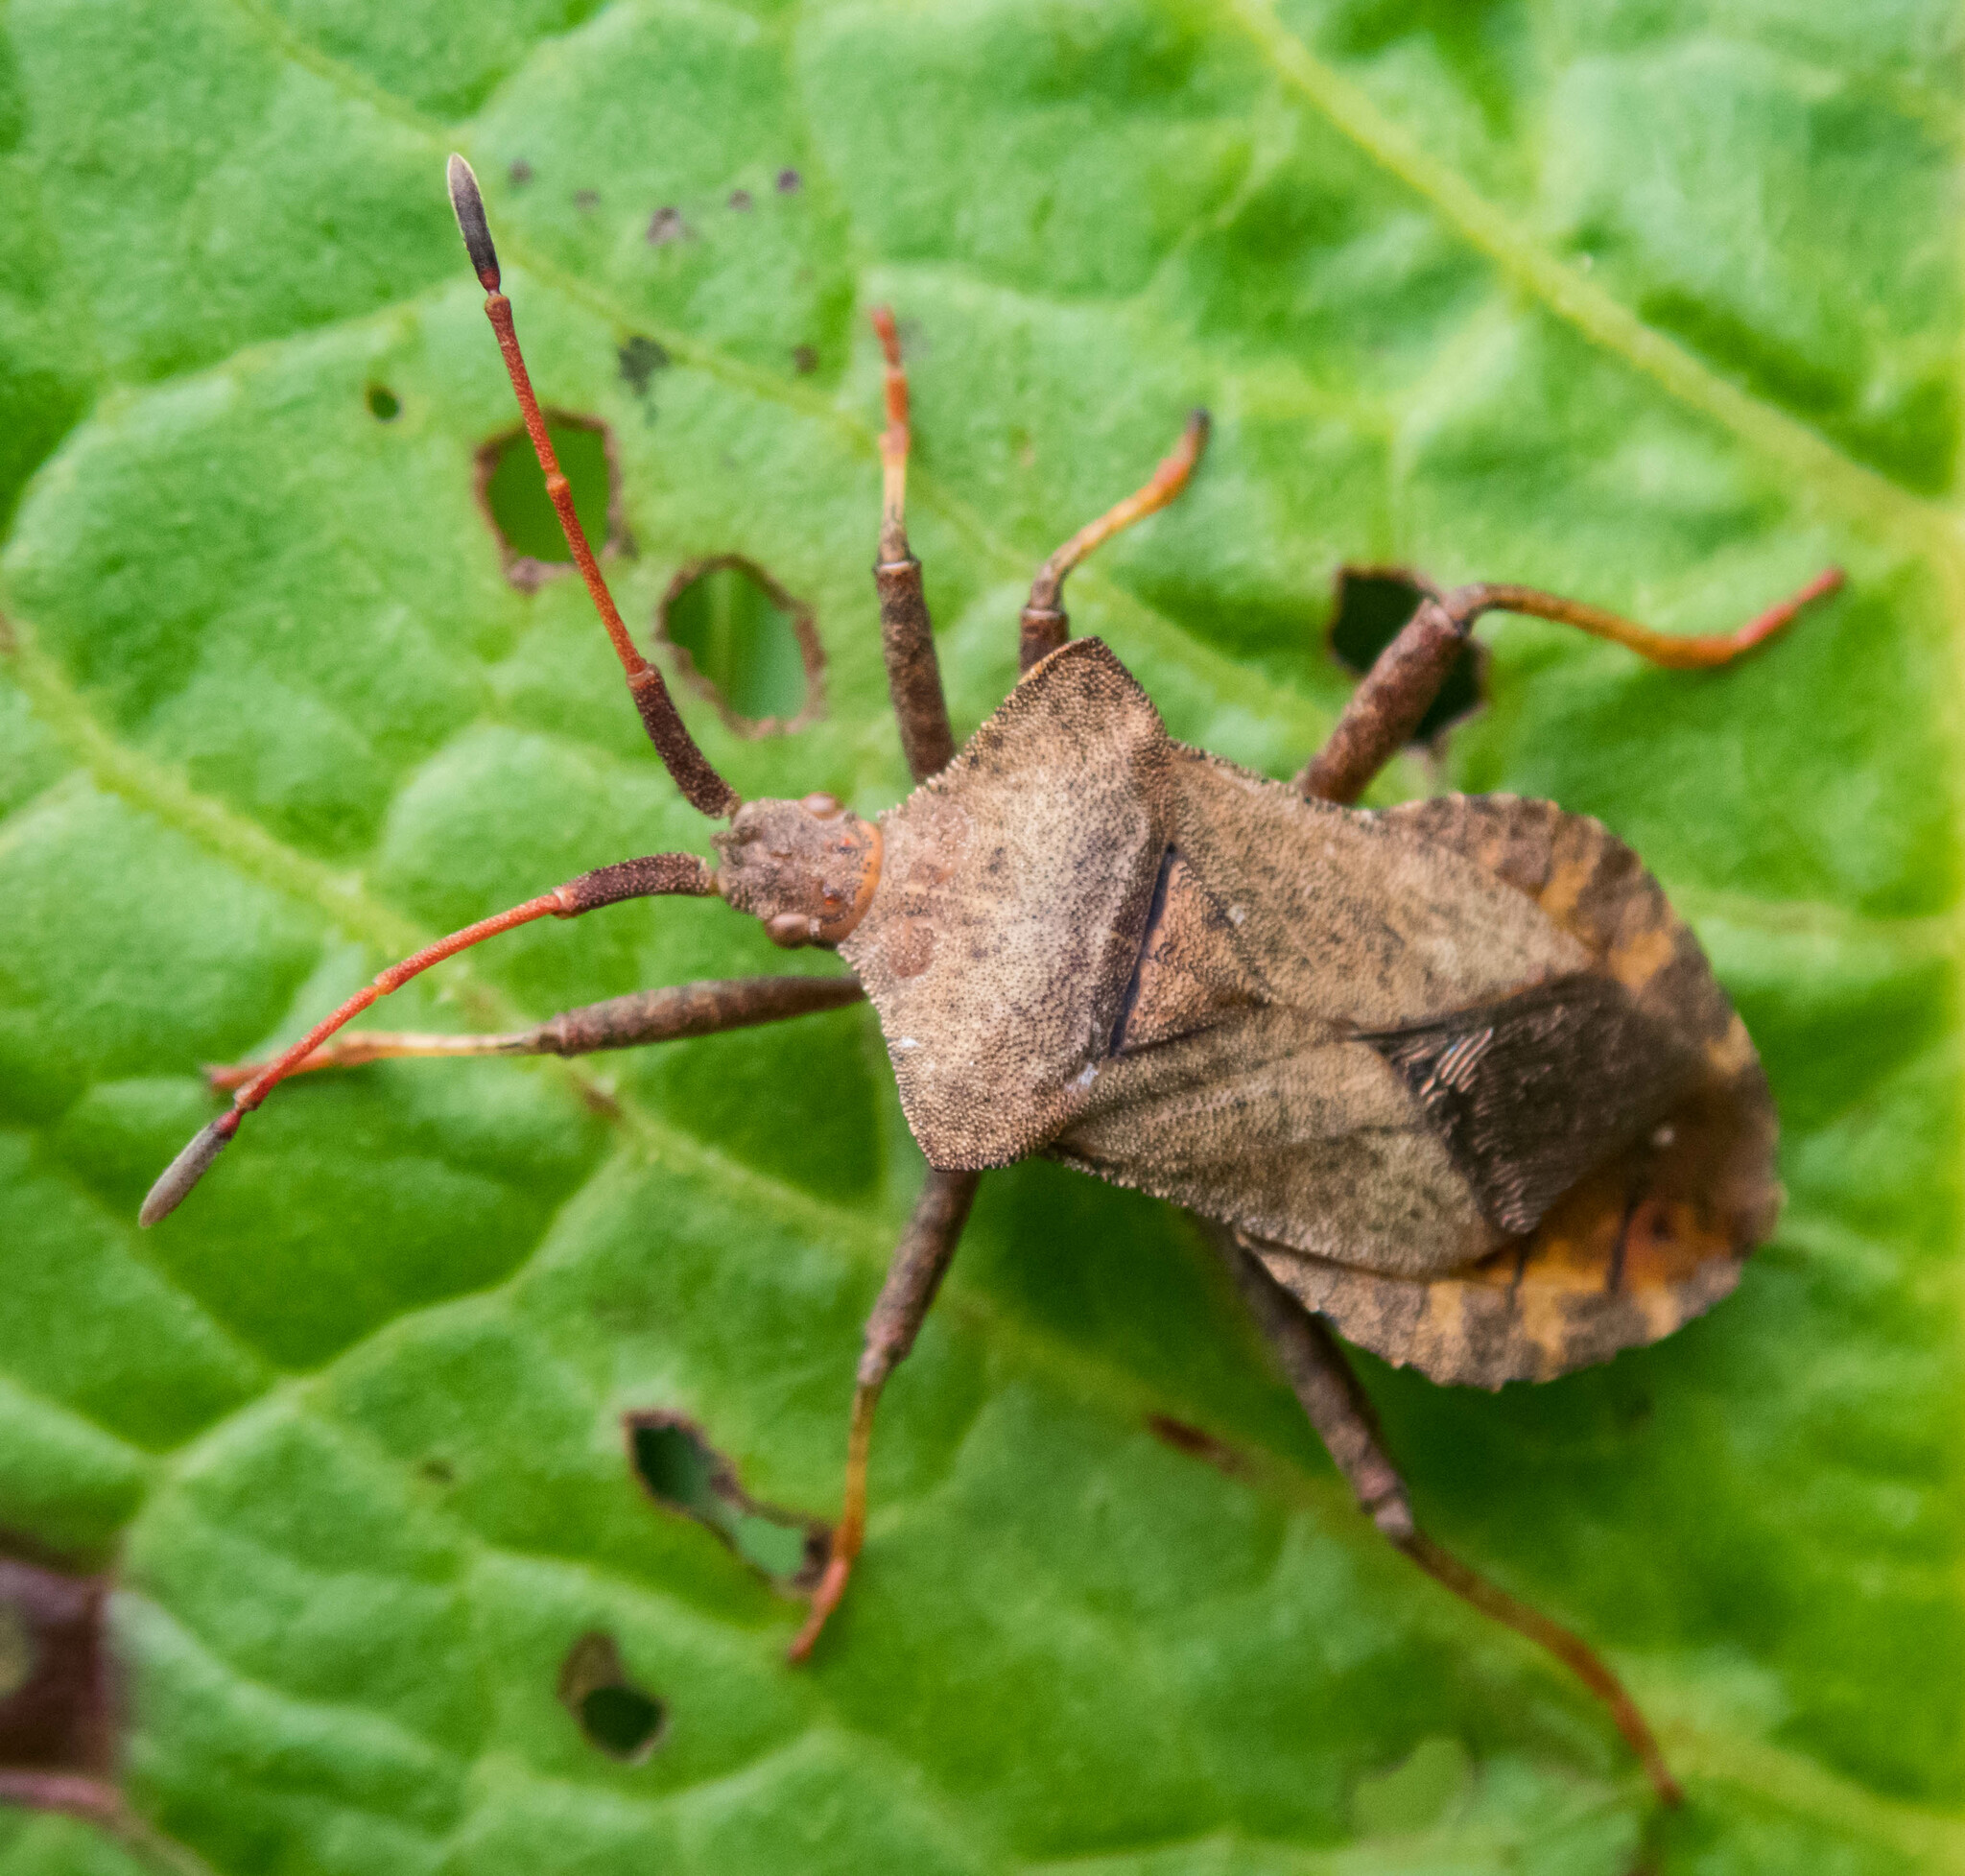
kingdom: Animalia
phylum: Arthropoda
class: Insecta
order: Hemiptera
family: Coreidae
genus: Coreus
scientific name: Coreus marginatus
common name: Dock bug
